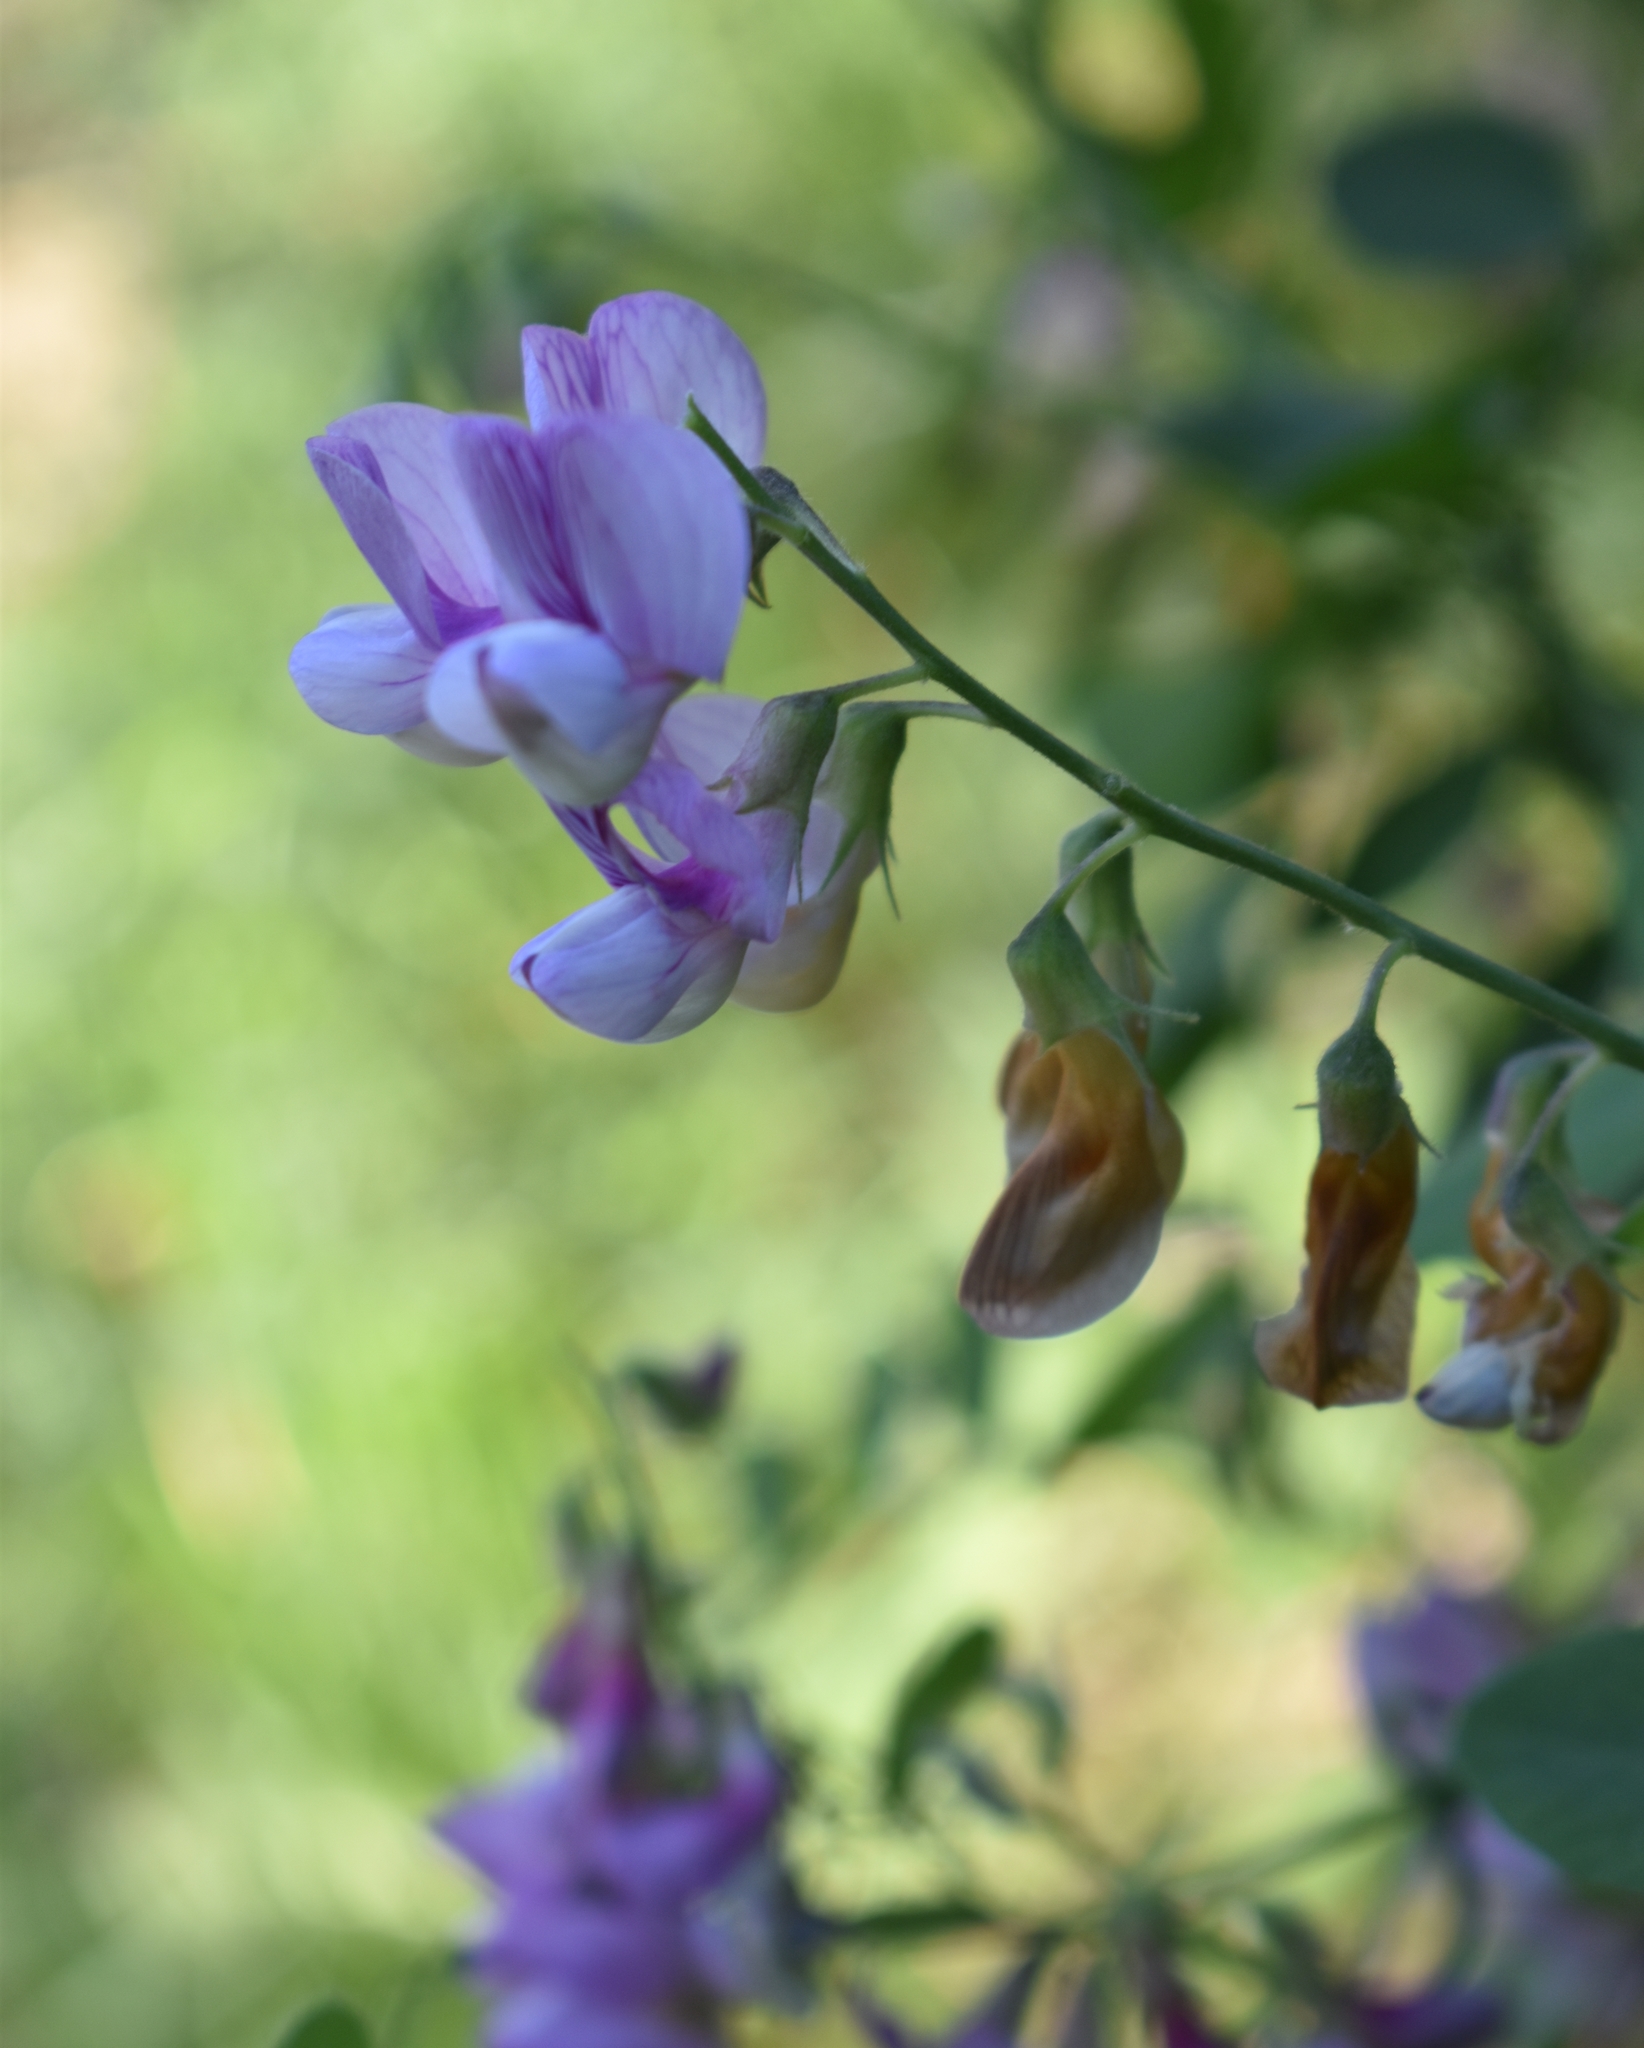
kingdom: Plantae
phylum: Tracheophyta
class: Magnoliopsida
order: Fabales
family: Fabaceae
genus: Lathyrus
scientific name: Lathyrus vestitus
